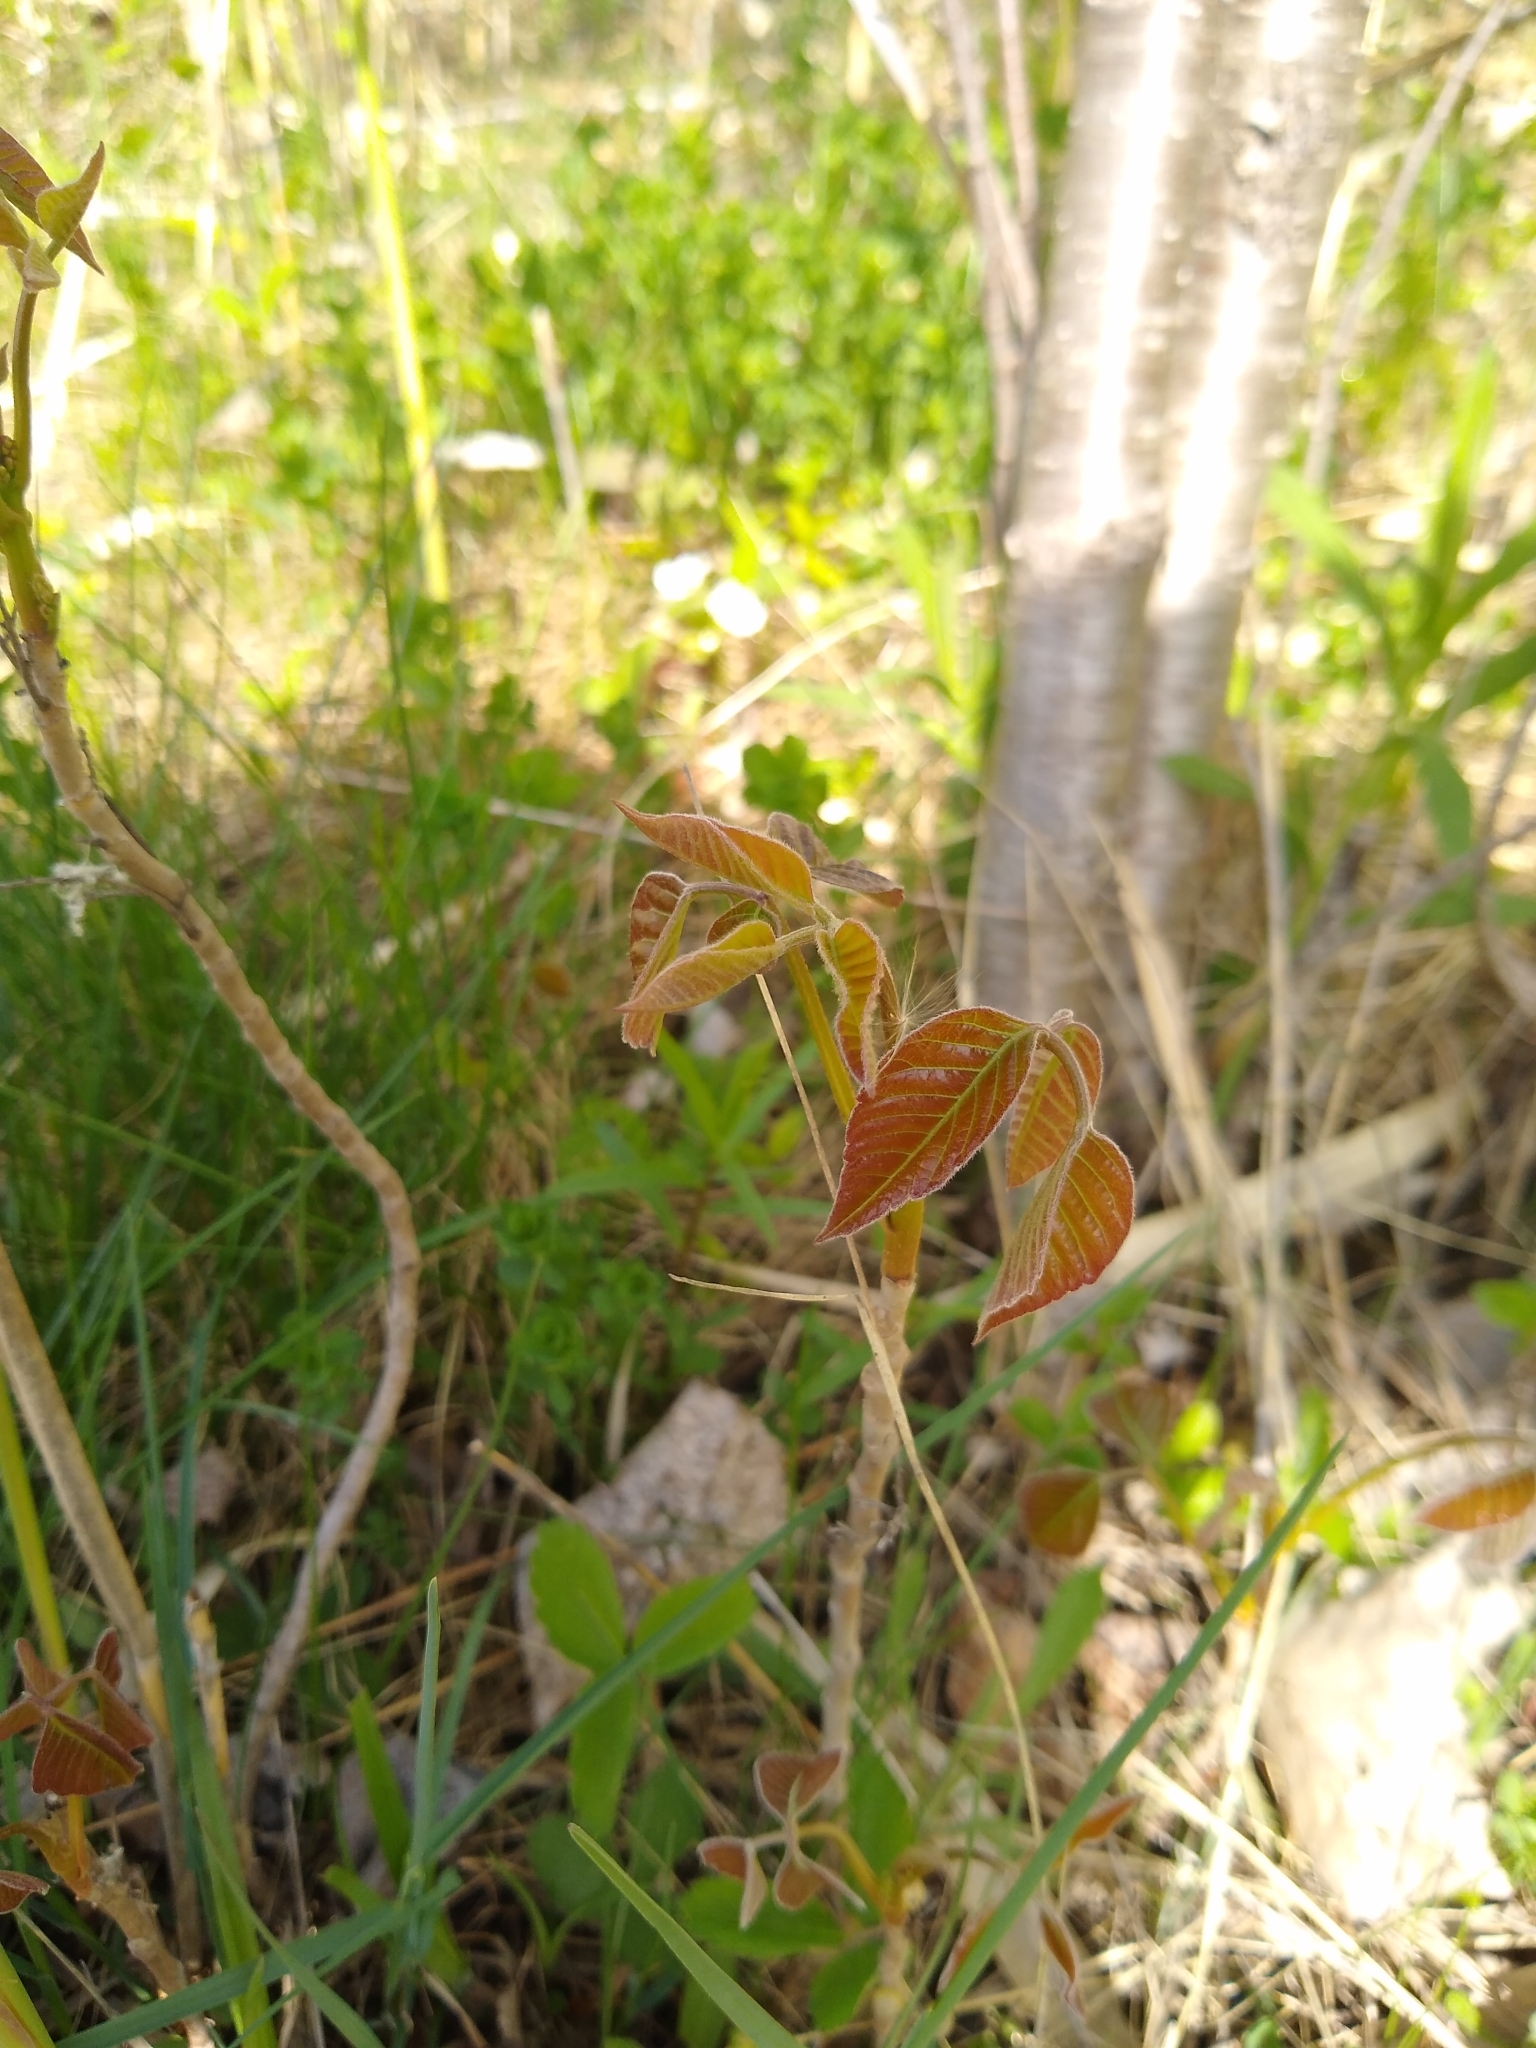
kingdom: Plantae
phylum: Tracheophyta
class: Magnoliopsida
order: Sapindales
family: Anacardiaceae
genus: Toxicodendron
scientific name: Toxicodendron radicans
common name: Poison ivy
